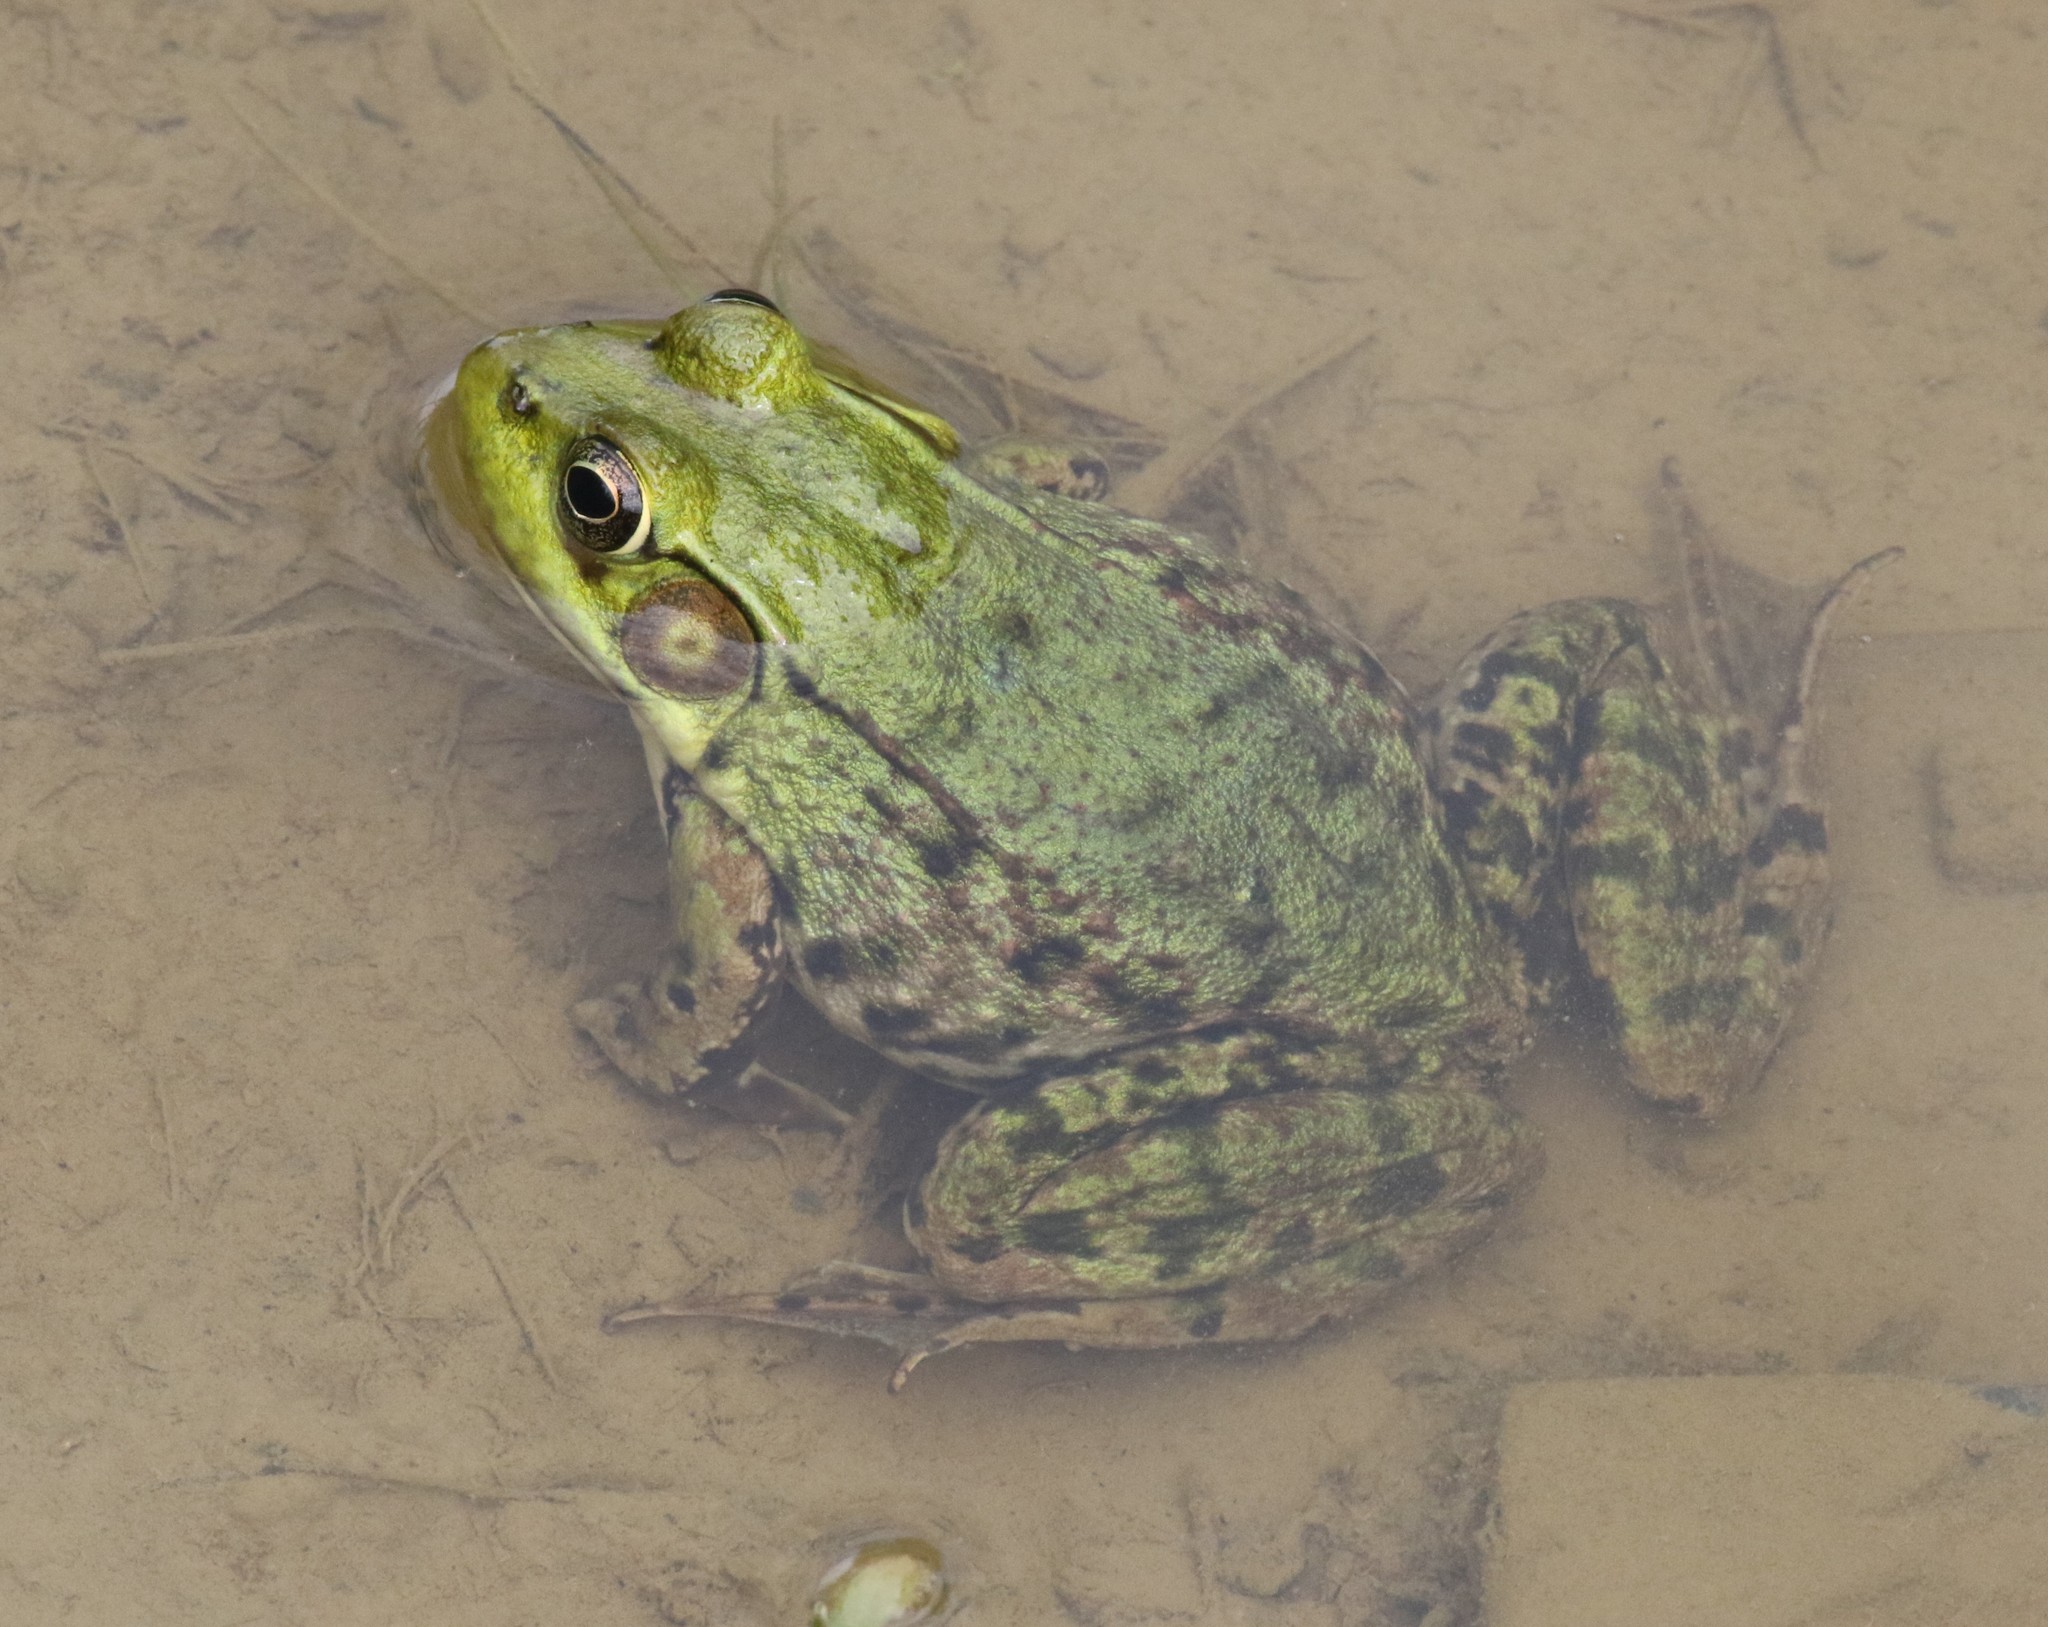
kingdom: Animalia
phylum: Chordata
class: Amphibia
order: Anura
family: Ranidae
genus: Lithobates
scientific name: Lithobates clamitans
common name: Green frog
